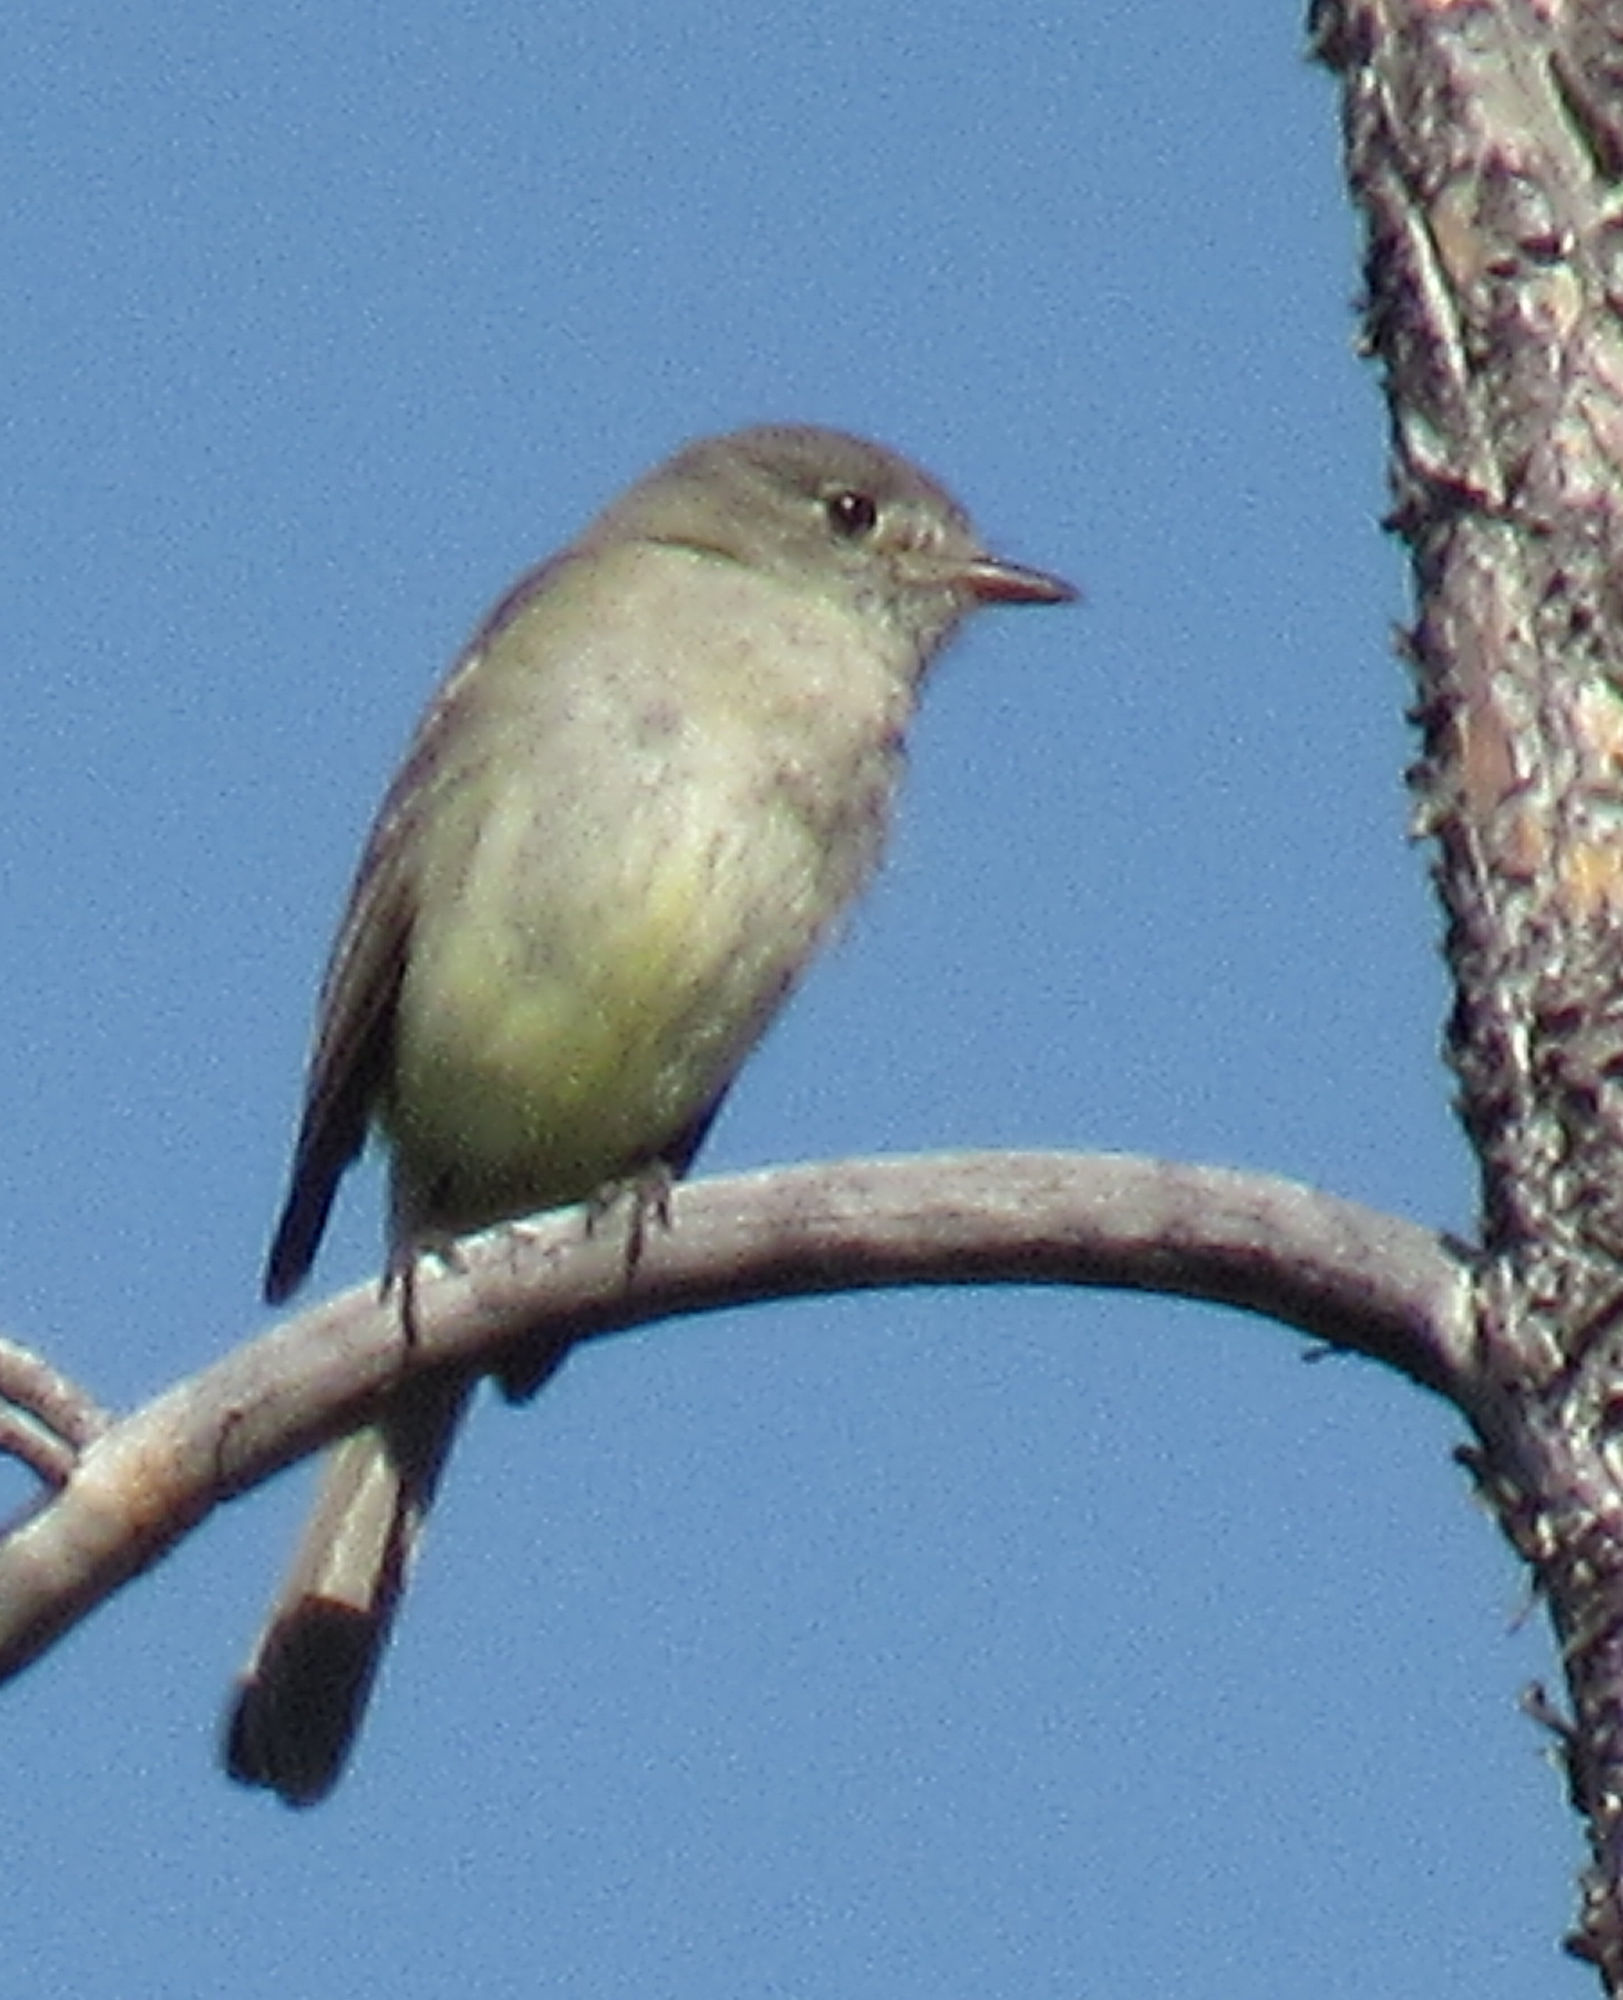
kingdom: Animalia
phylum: Chordata
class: Aves
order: Passeriformes
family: Tyrannidae
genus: Empidonax
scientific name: Empidonax oberholseri
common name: Dusky flycatcher
